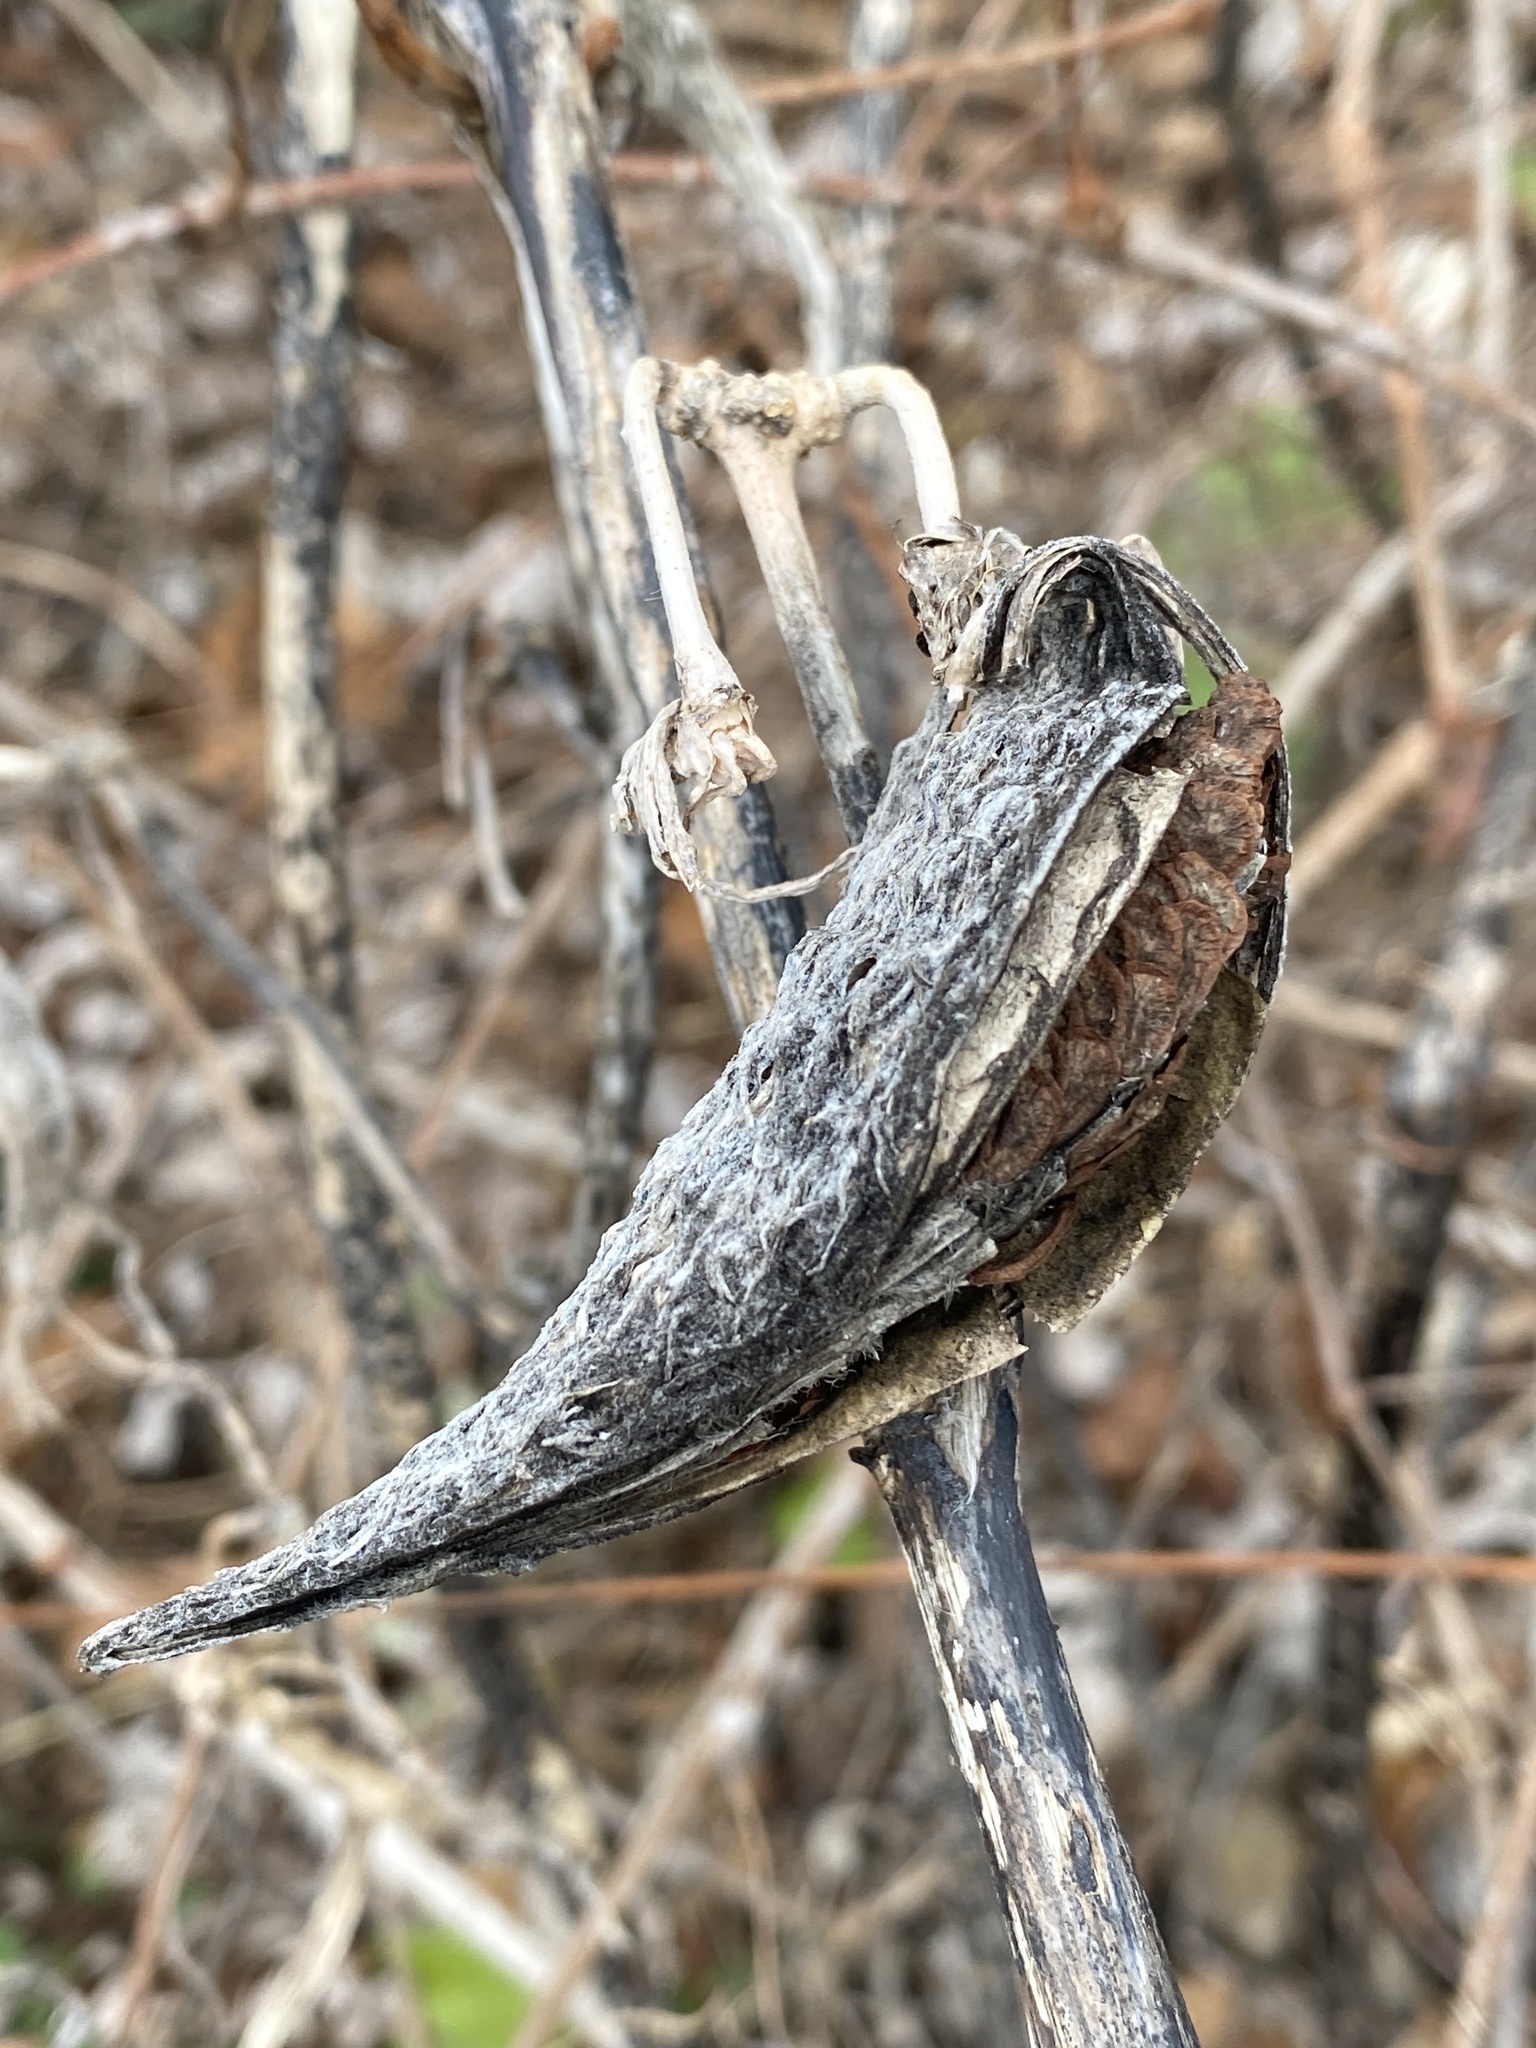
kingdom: Plantae
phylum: Tracheophyta
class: Magnoliopsida
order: Gentianales
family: Apocynaceae
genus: Asclepias
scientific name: Asclepias syriaca
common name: Common milkweed
